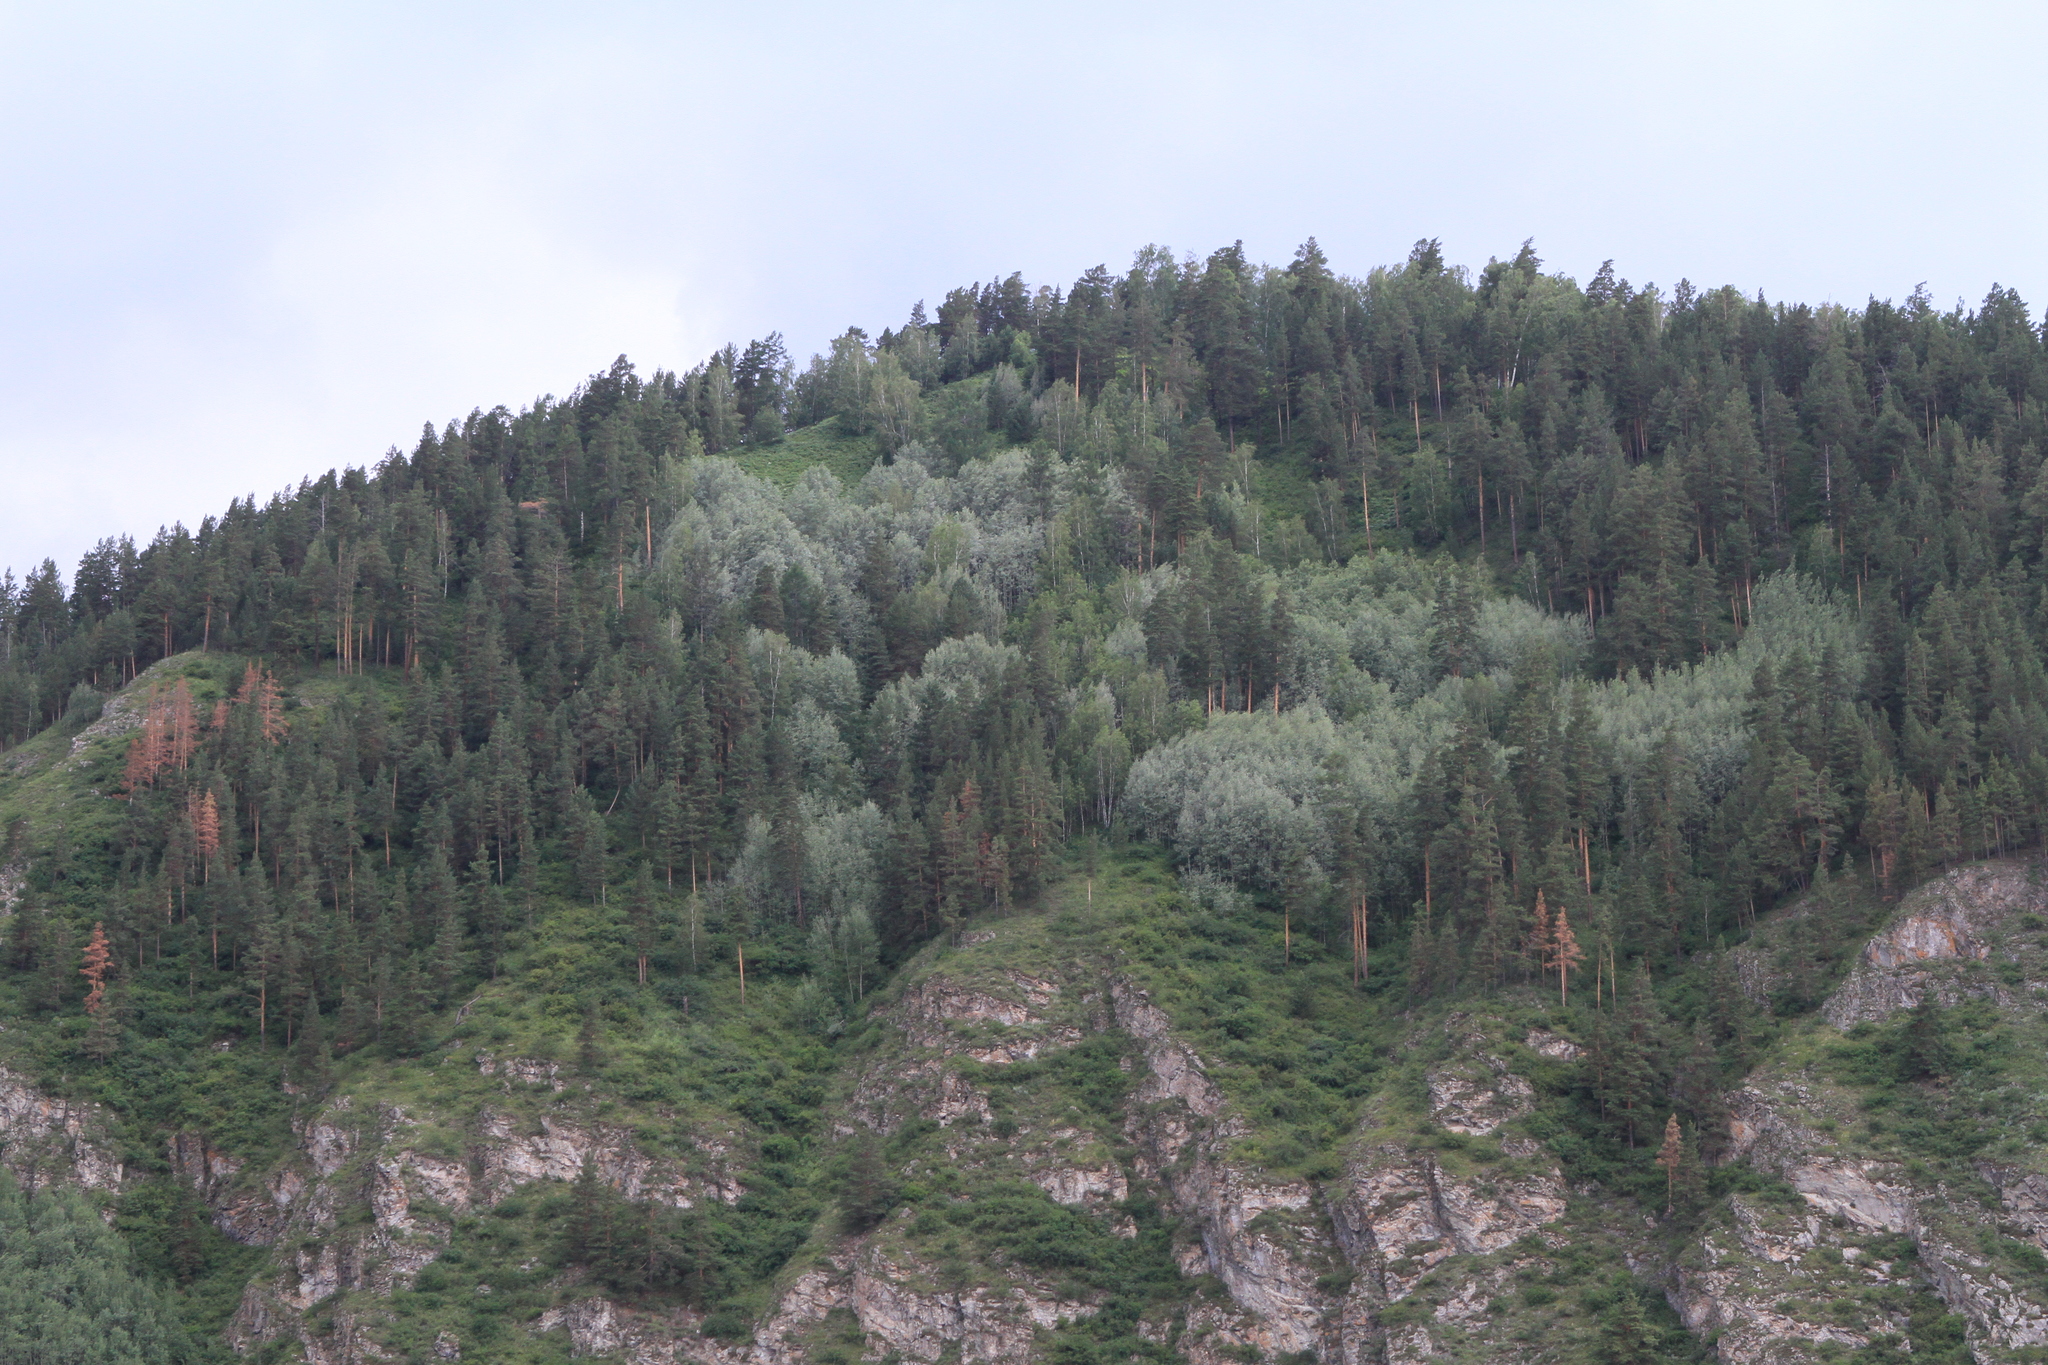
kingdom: Plantae
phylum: Tracheophyta
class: Pinopsida
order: Pinales
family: Pinaceae
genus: Pinus
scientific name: Pinus sylvestris
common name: Scots pine
